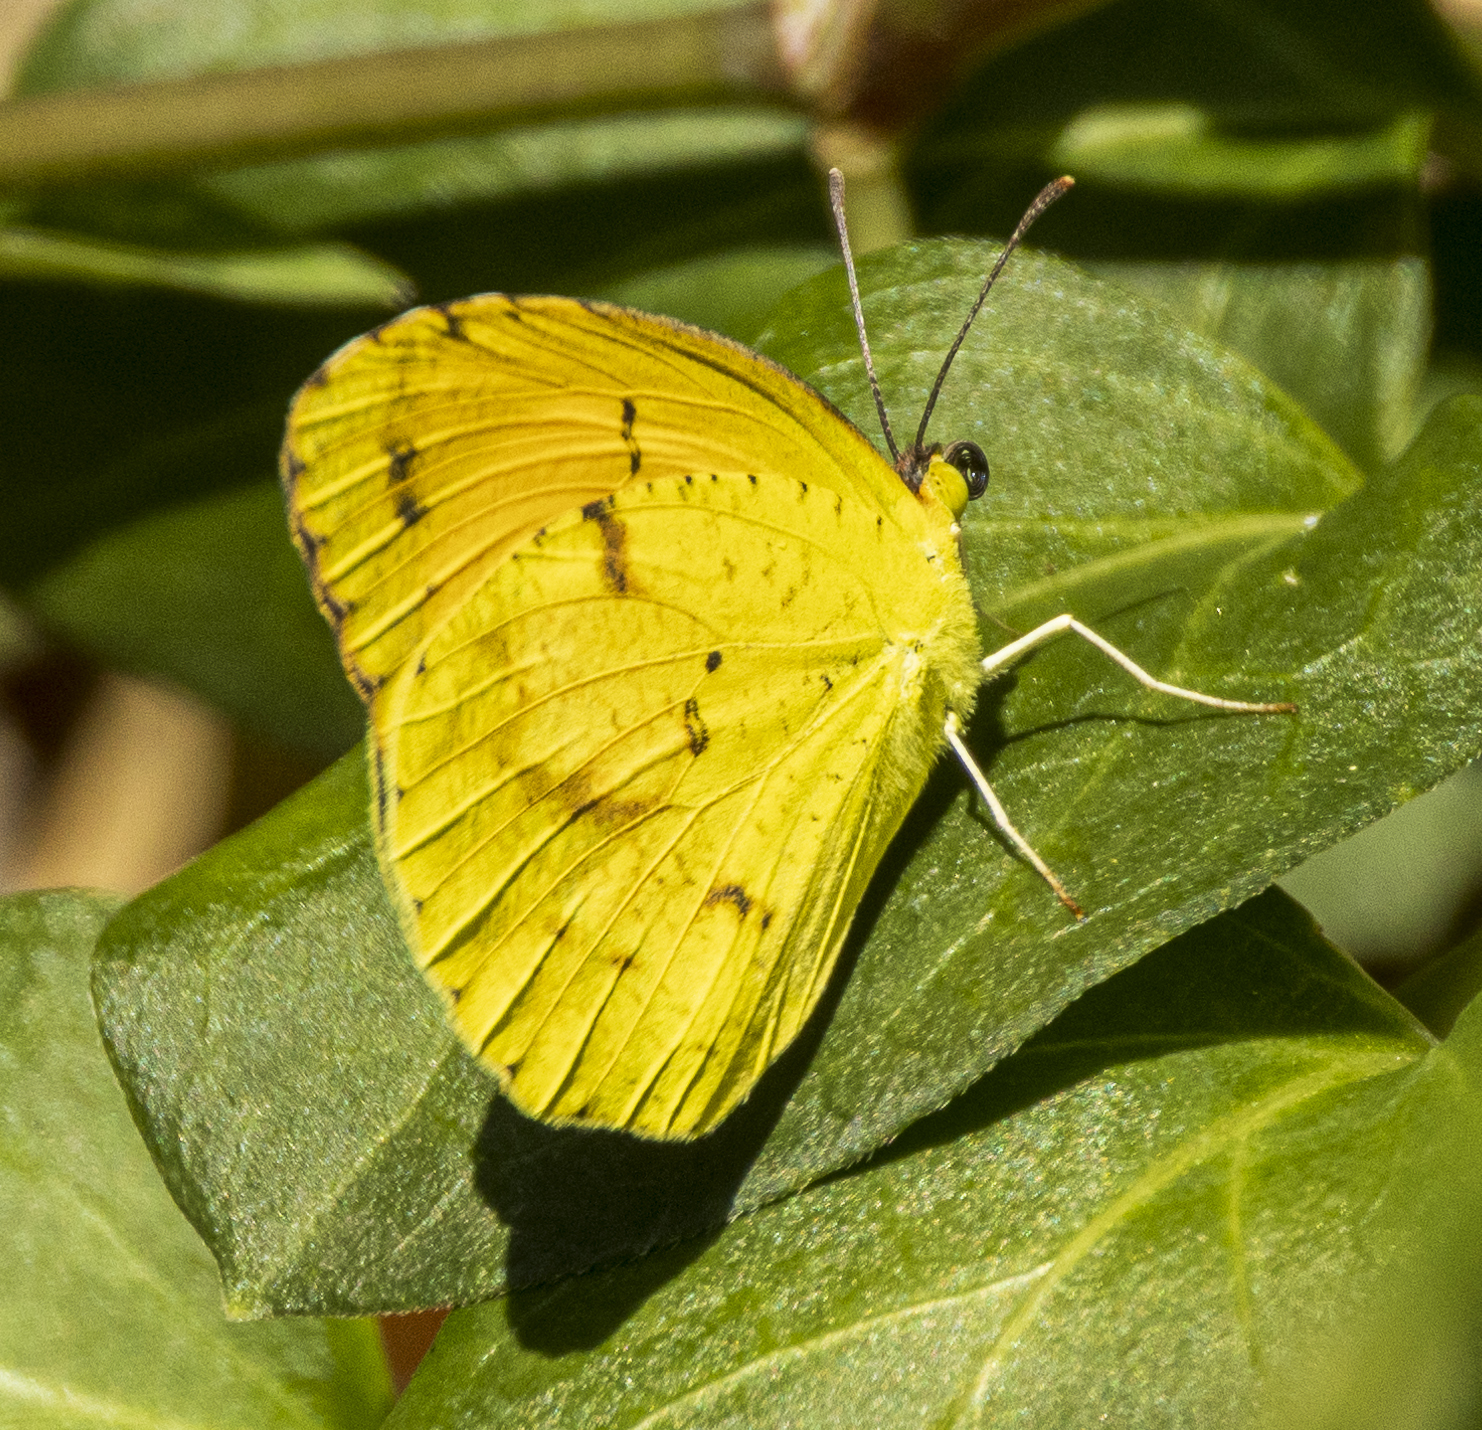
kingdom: Animalia
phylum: Arthropoda
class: Insecta
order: Lepidoptera
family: Pieridae
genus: Abaeis
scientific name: Abaeis nicippe
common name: Sleepy orange
